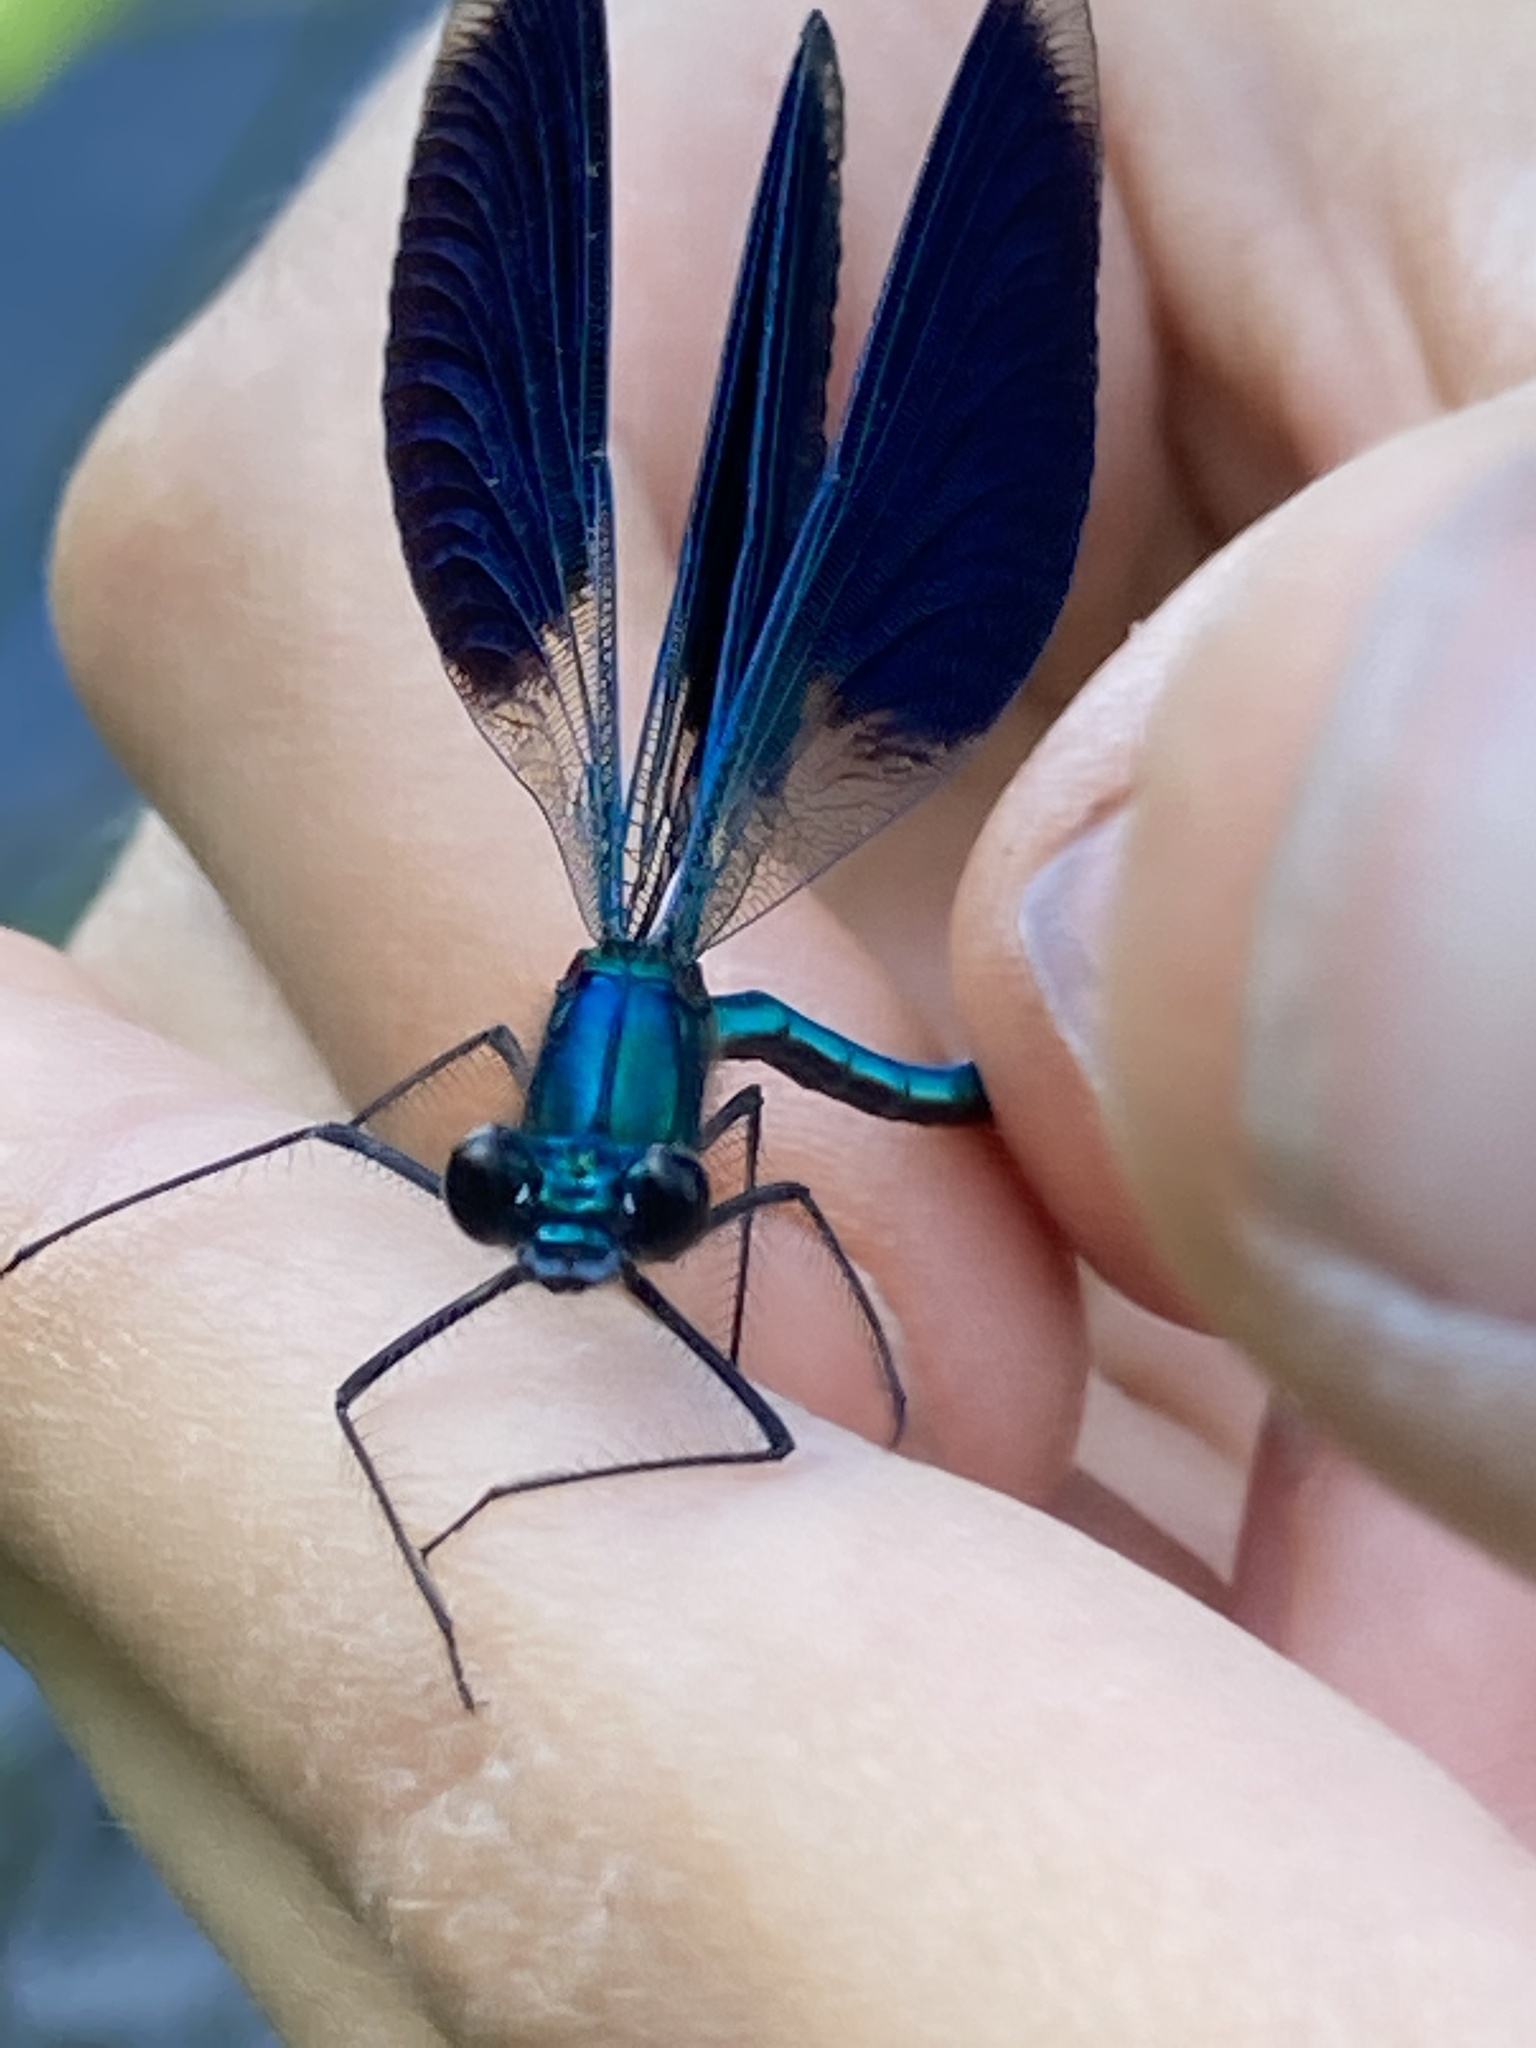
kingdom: Animalia
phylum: Arthropoda
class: Insecta
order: Odonata
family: Calopterygidae
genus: Calopteryx
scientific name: Calopteryx splendens
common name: Banded demoiselle
